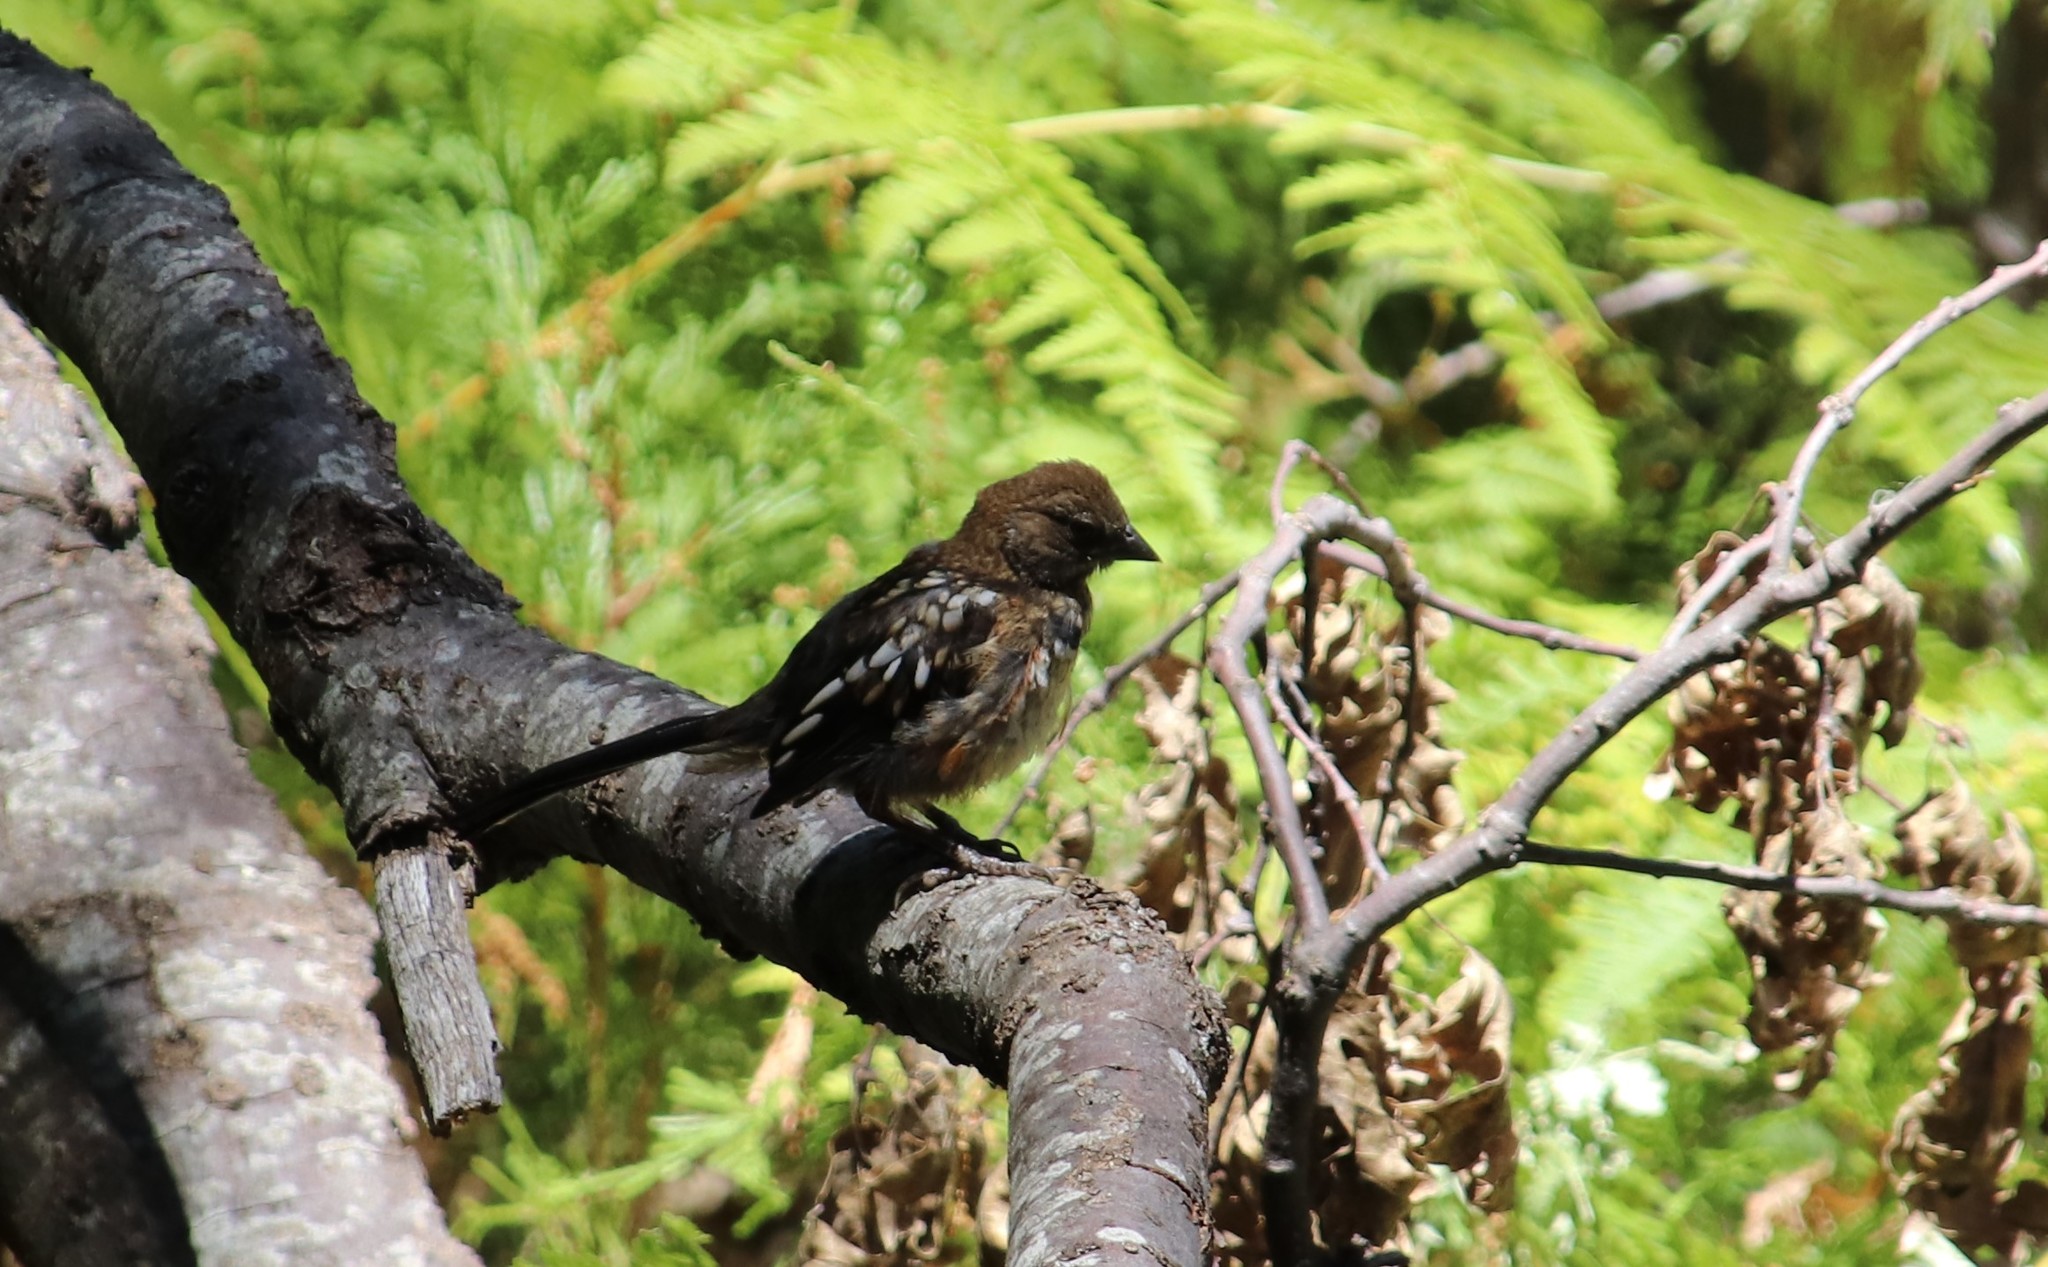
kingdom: Animalia
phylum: Chordata
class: Aves
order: Passeriformes
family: Passerellidae
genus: Pipilo
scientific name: Pipilo maculatus
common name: Spotted towhee
